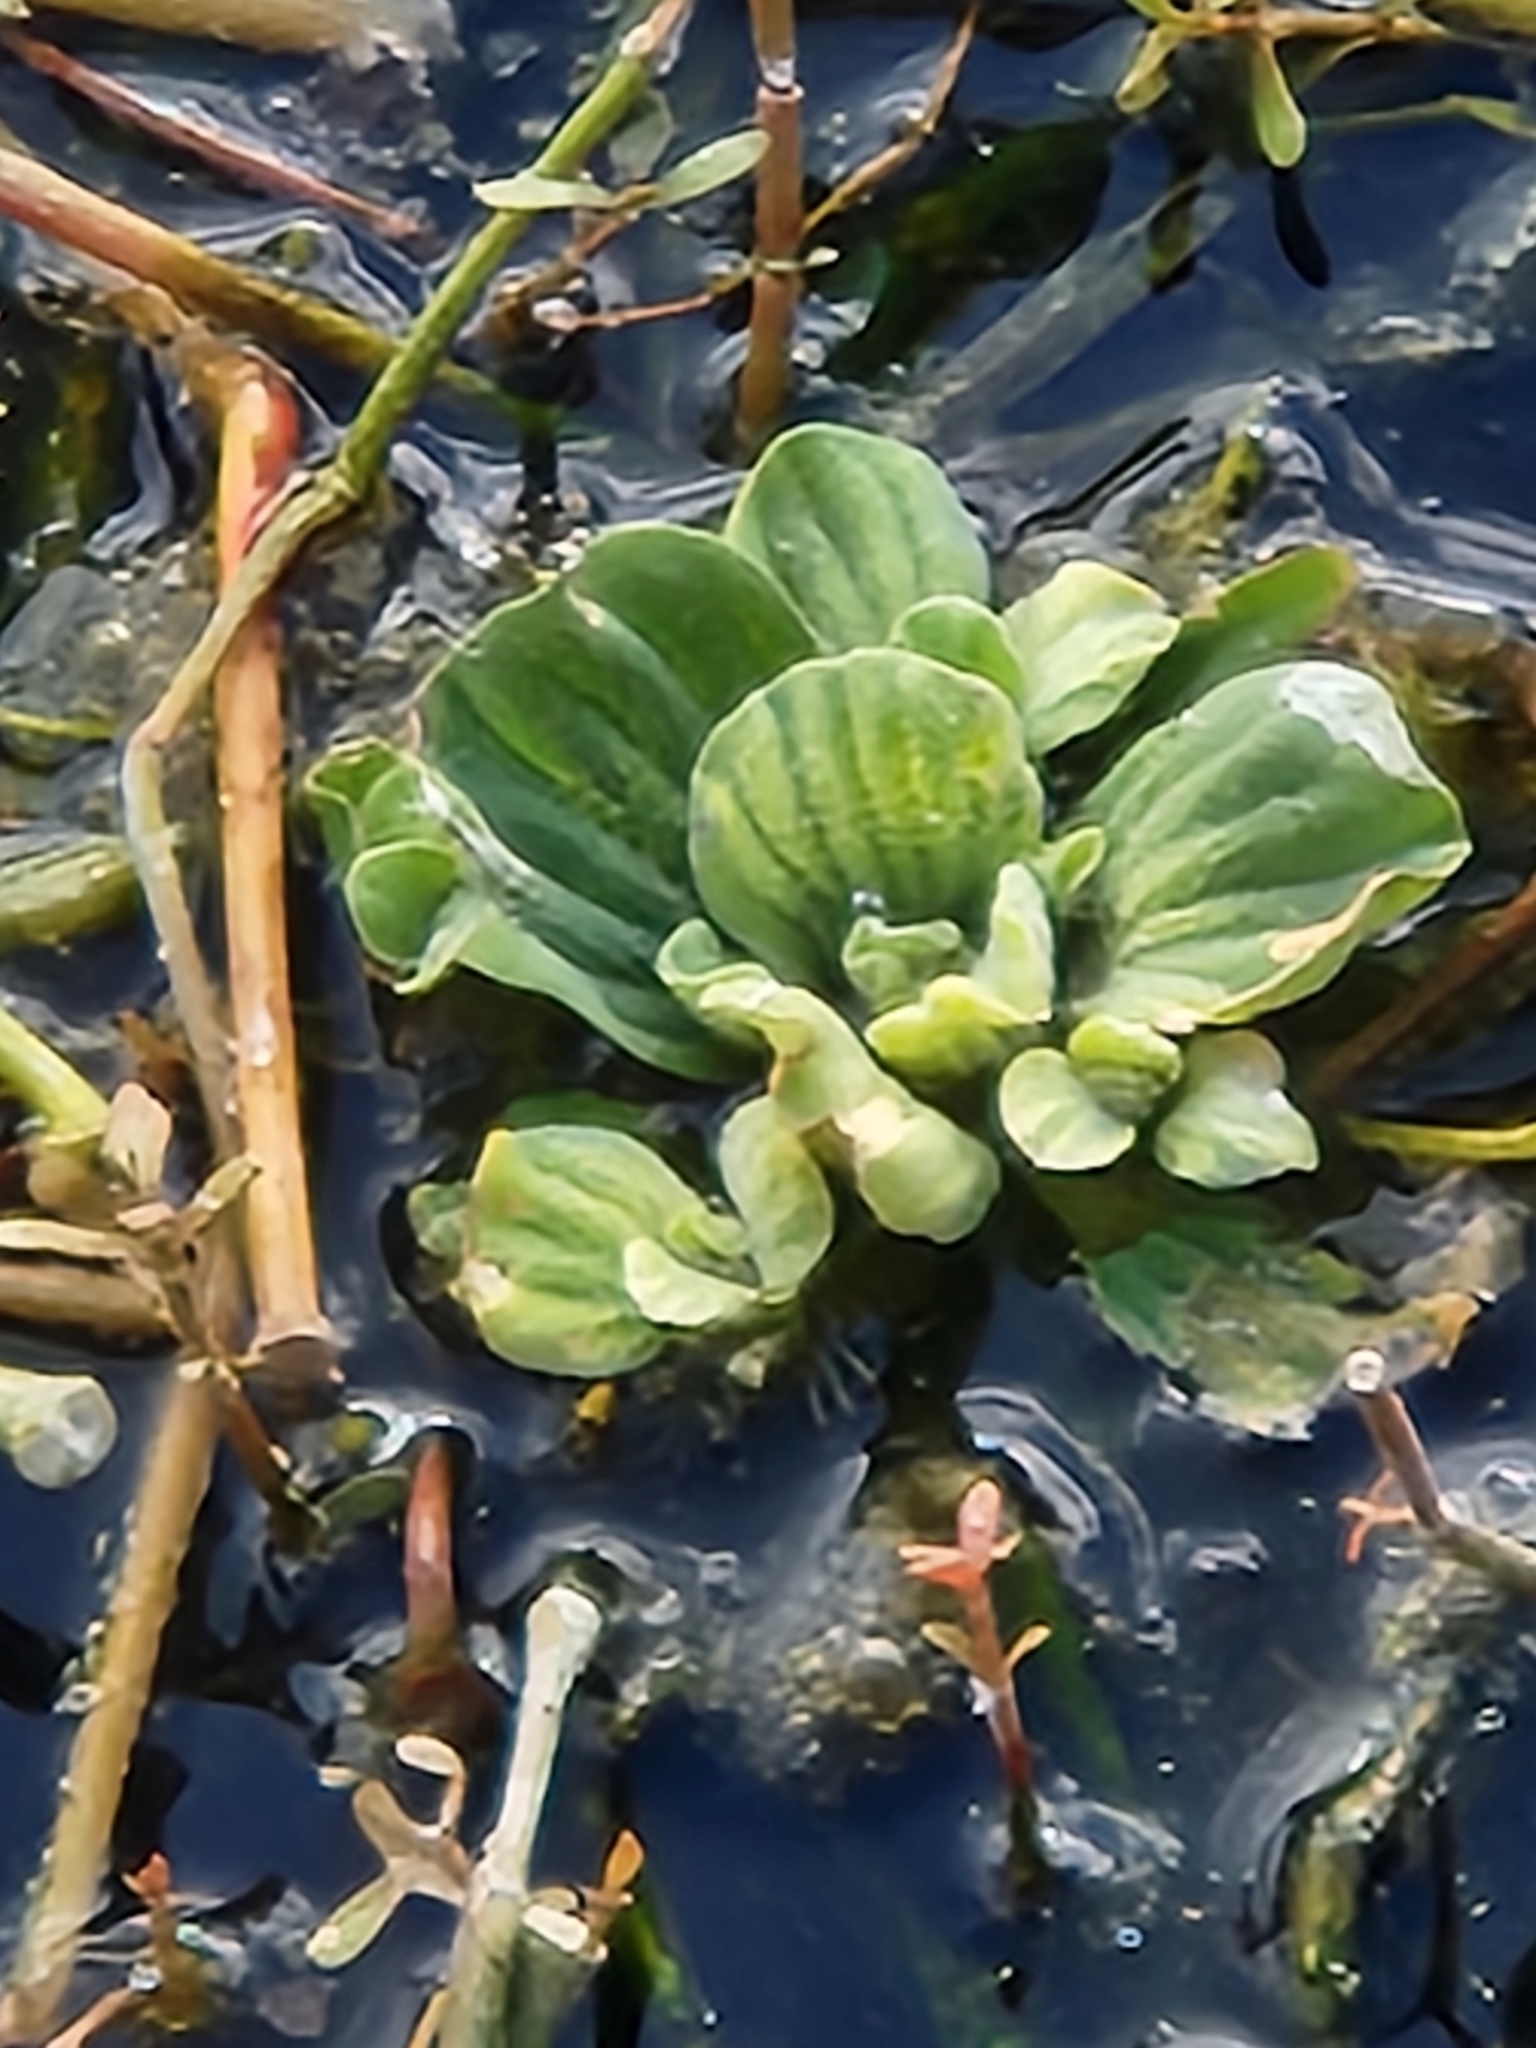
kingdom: Plantae
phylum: Tracheophyta
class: Liliopsida
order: Alismatales
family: Araceae
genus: Pistia
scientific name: Pistia stratiotes
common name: Water lettuce
